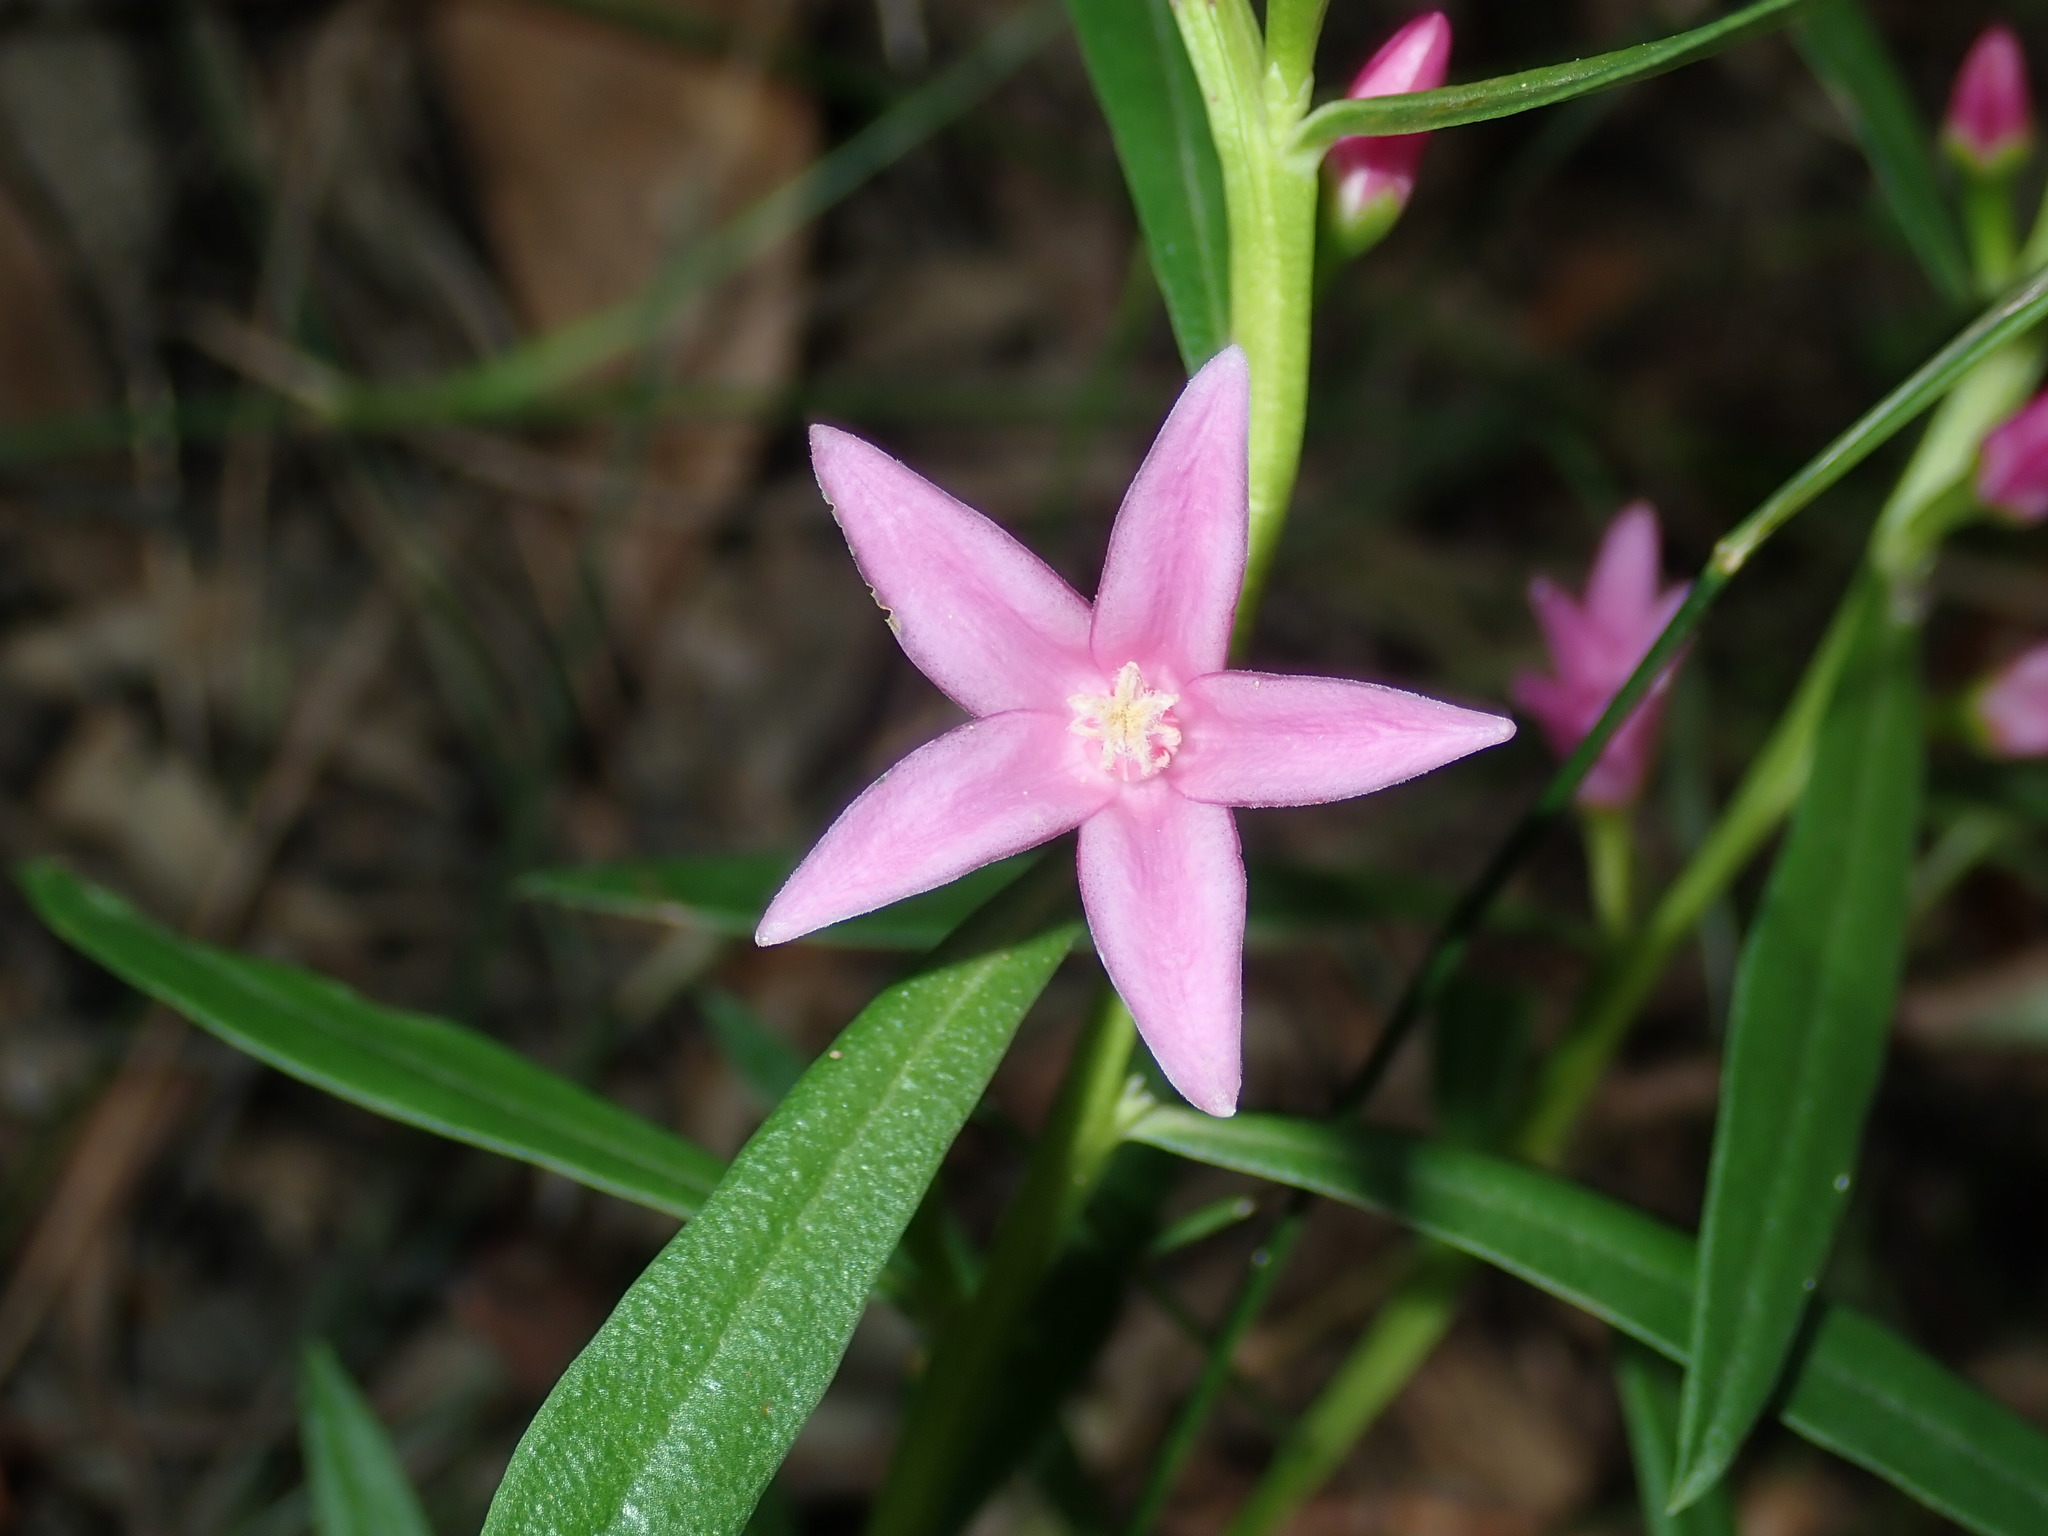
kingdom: Plantae
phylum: Tracheophyta
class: Magnoliopsida
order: Sapindales
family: Rutaceae
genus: Crowea
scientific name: Crowea saligna
